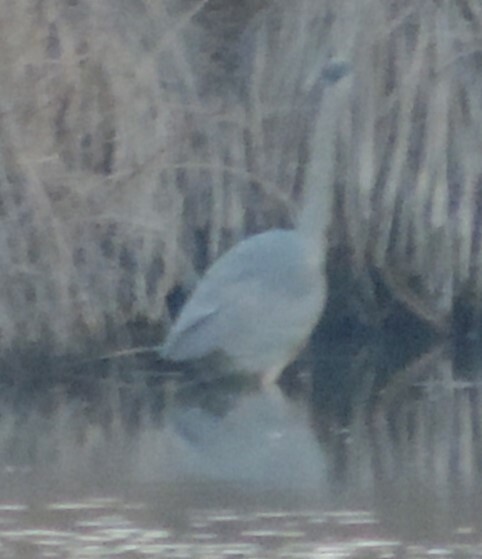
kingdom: Animalia
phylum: Chordata
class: Aves
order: Pelecaniformes
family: Ardeidae
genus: Ardea
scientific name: Ardea herodias
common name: Great blue heron
